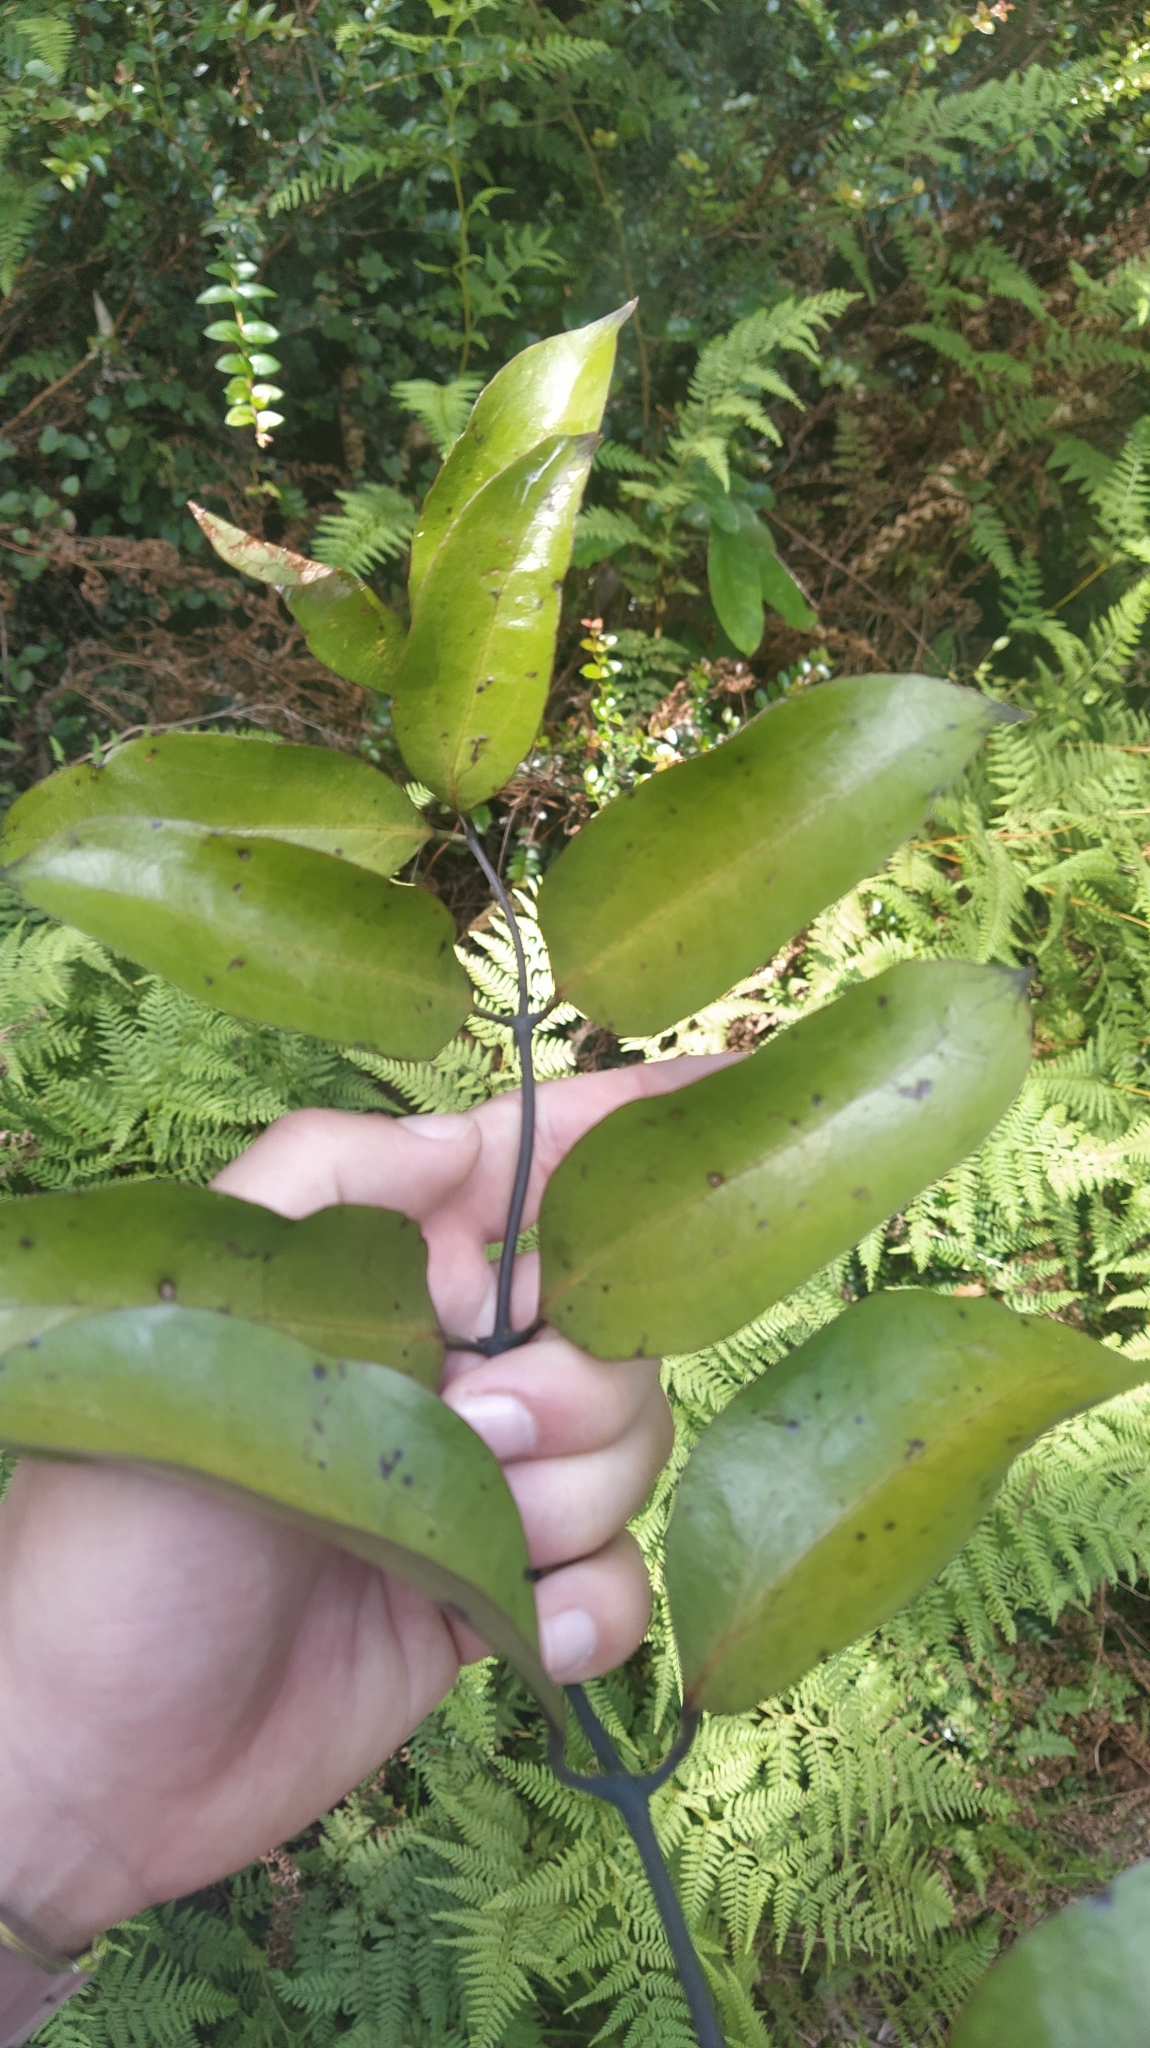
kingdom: Plantae
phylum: Tracheophyta
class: Liliopsida
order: Liliales
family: Ripogonaceae
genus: Ripogonum
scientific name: Ripogonum scandens
